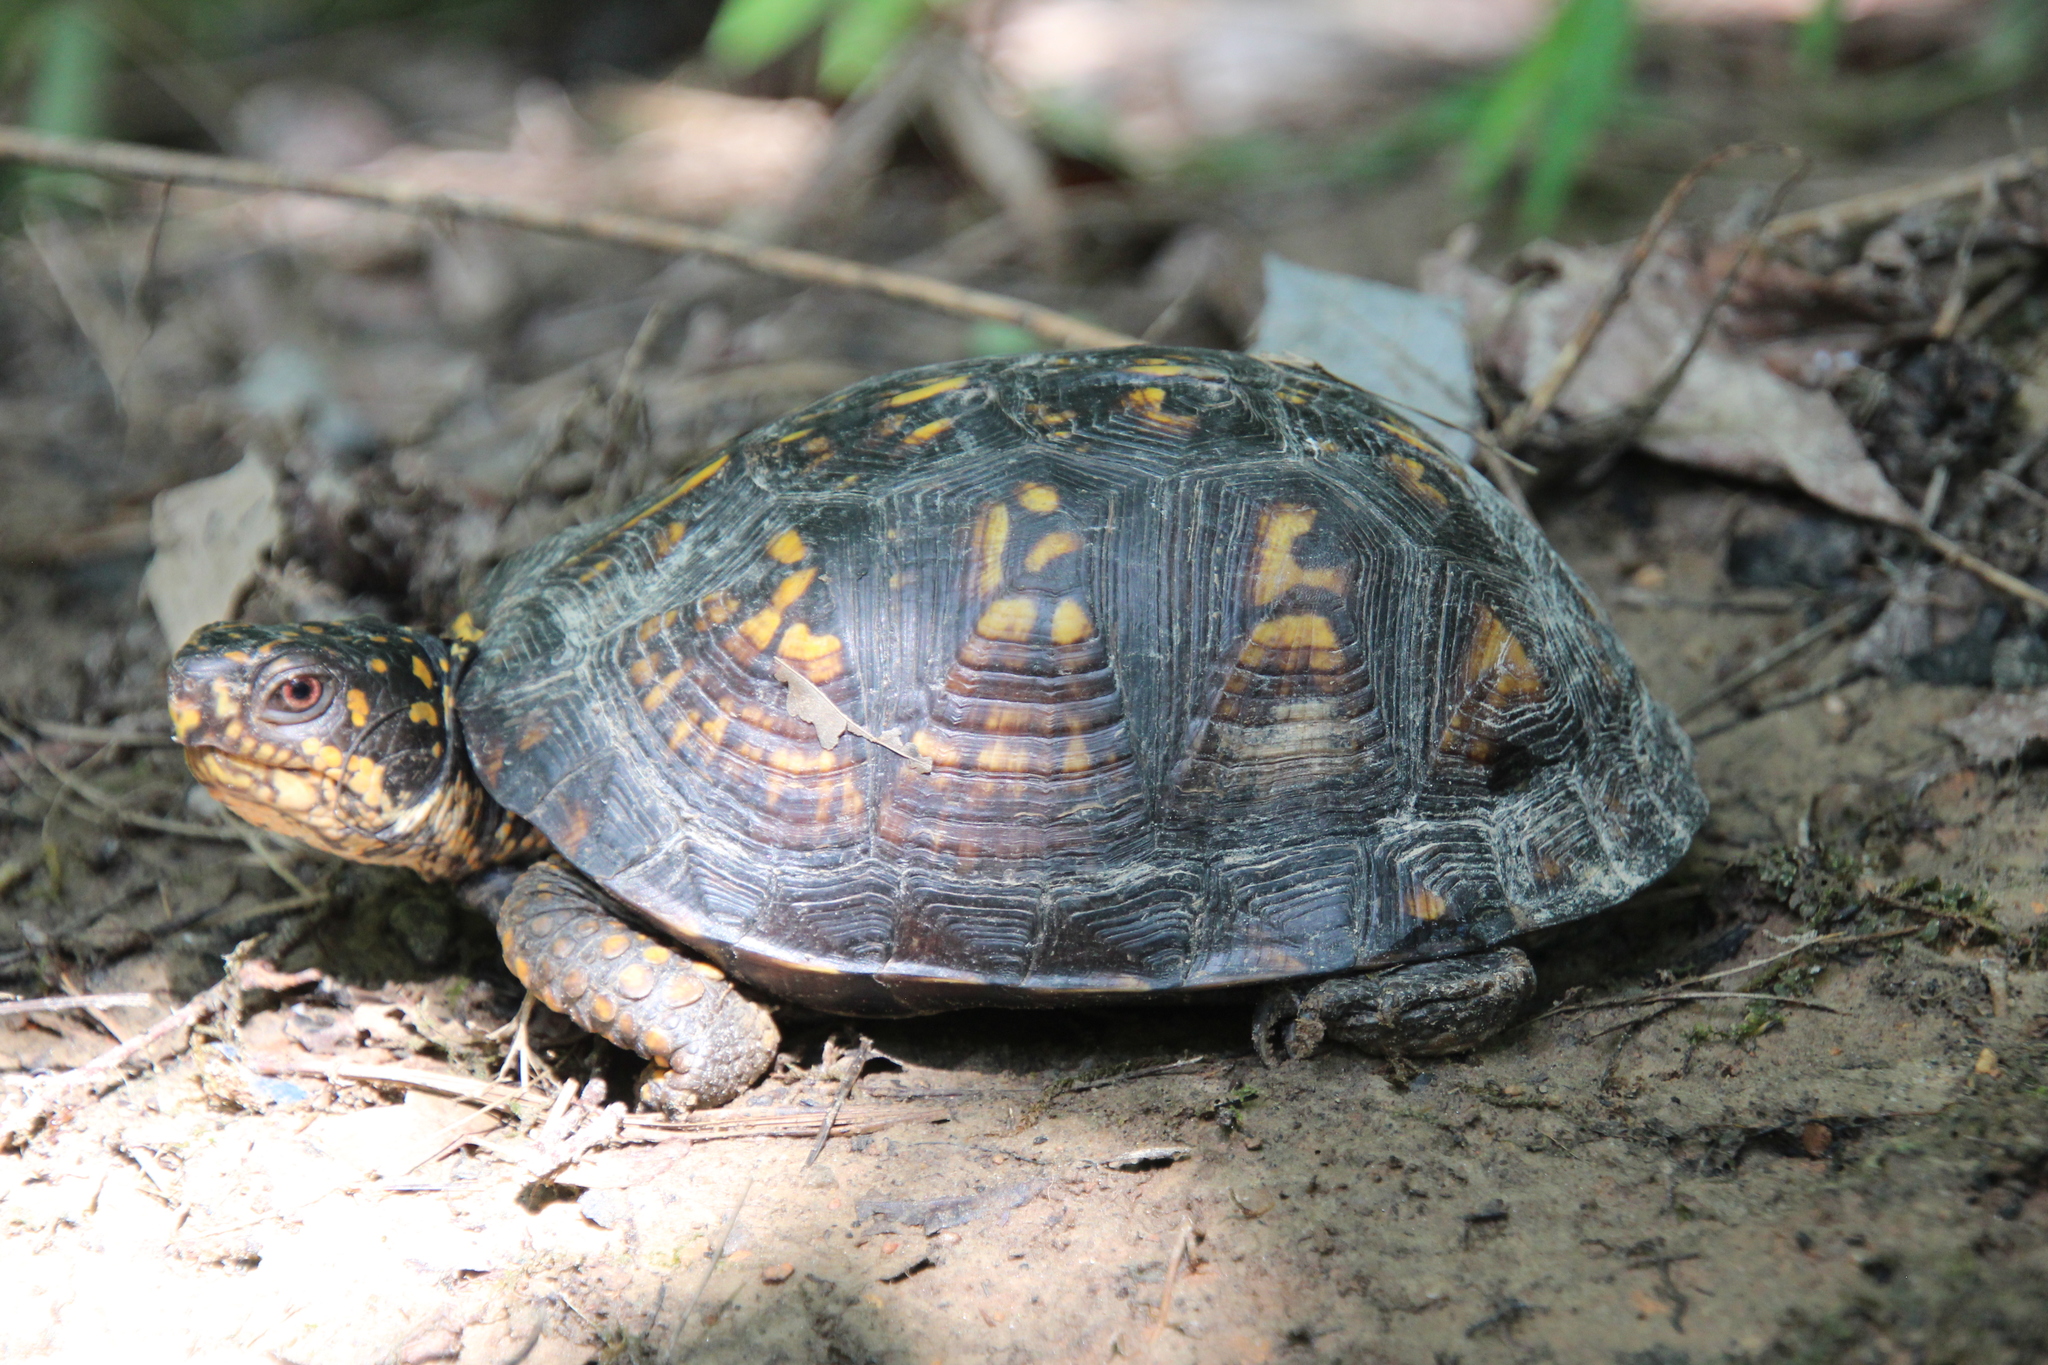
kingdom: Animalia
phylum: Chordata
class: Testudines
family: Emydidae
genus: Terrapene
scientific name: Terrapene carolina
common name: Common box turtle
